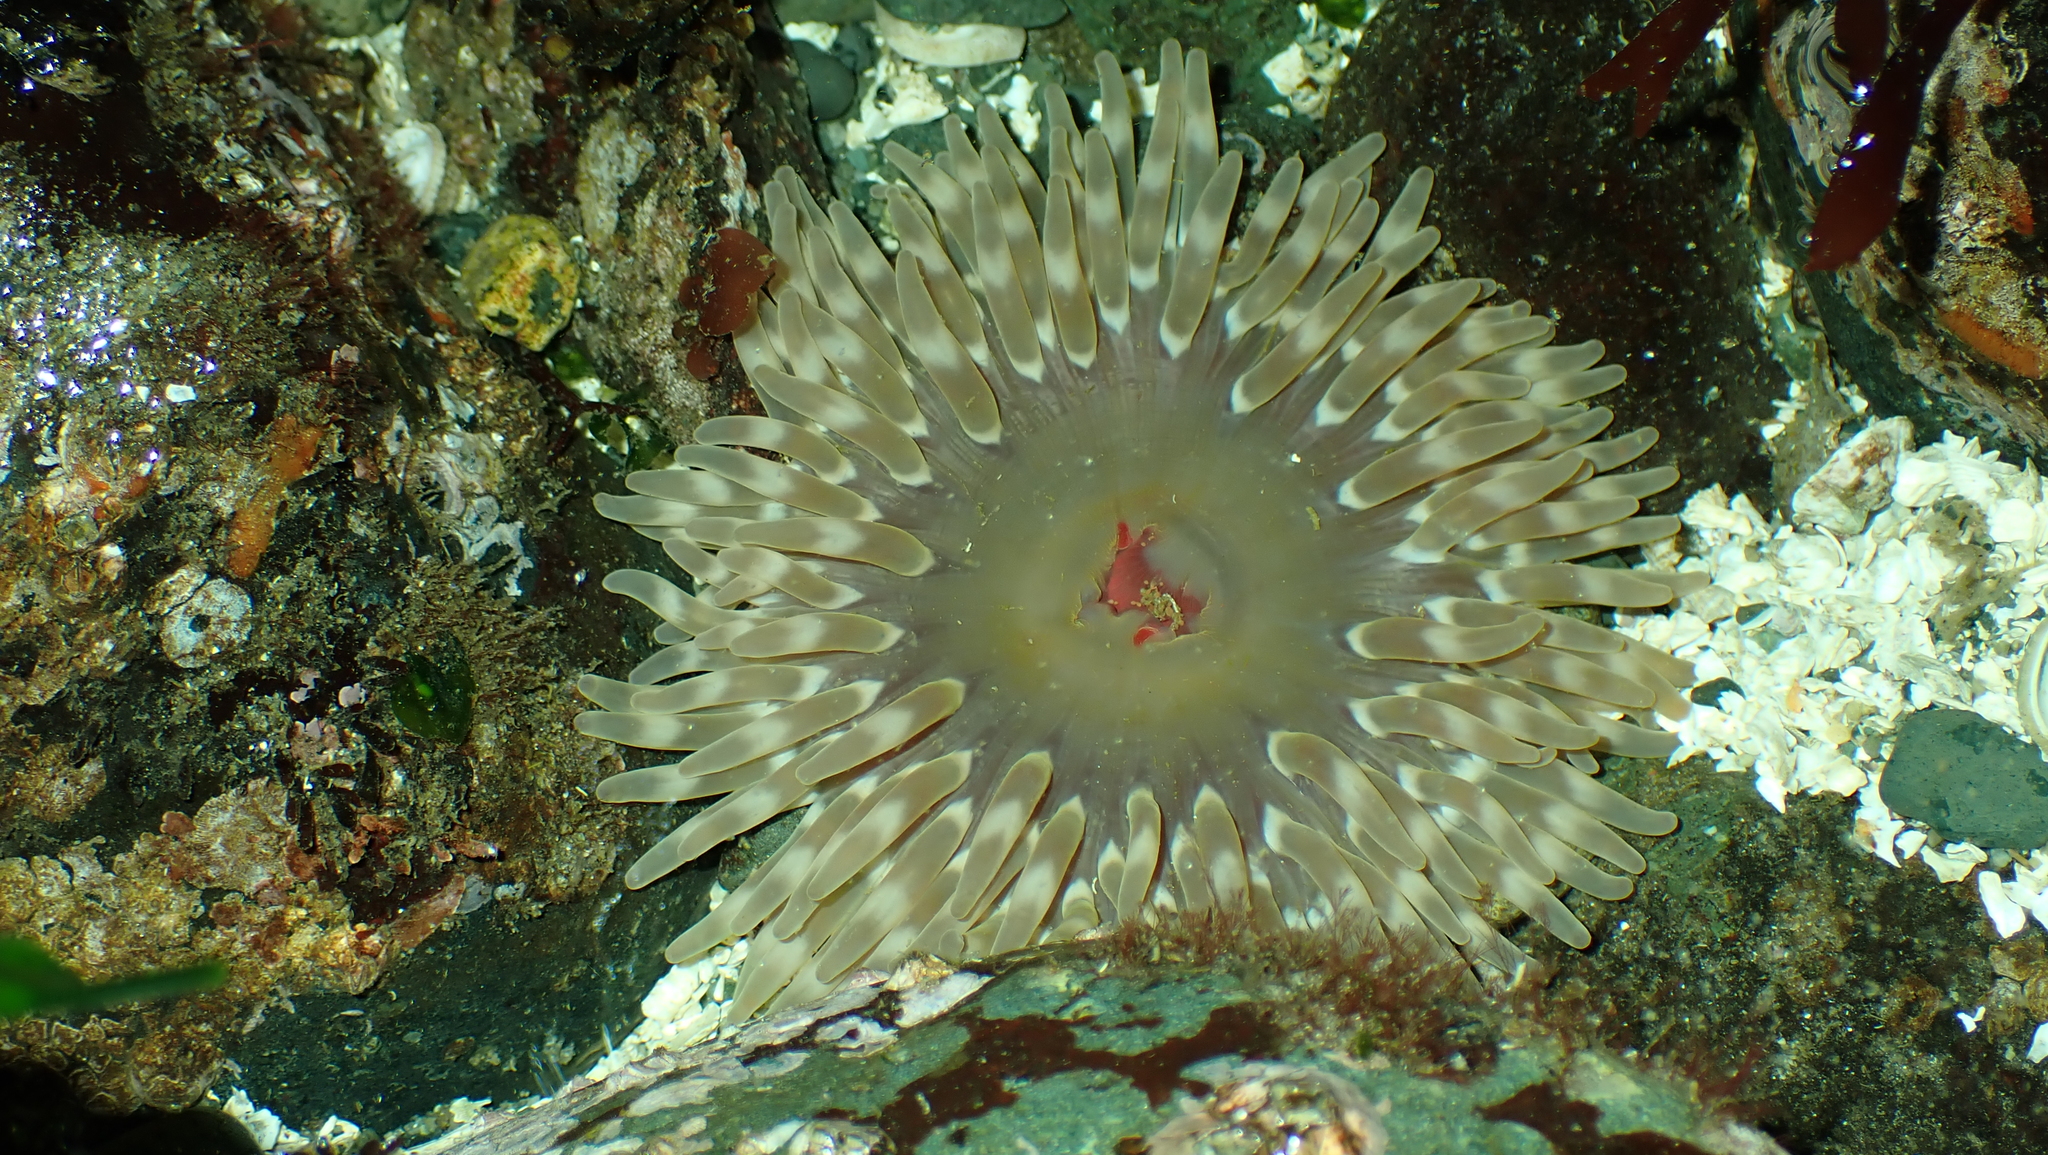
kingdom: Animalia
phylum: Cnidaria
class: Anthozoa
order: Actiniaria
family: Actiniidae
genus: Urticina
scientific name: Urticina clandestina
